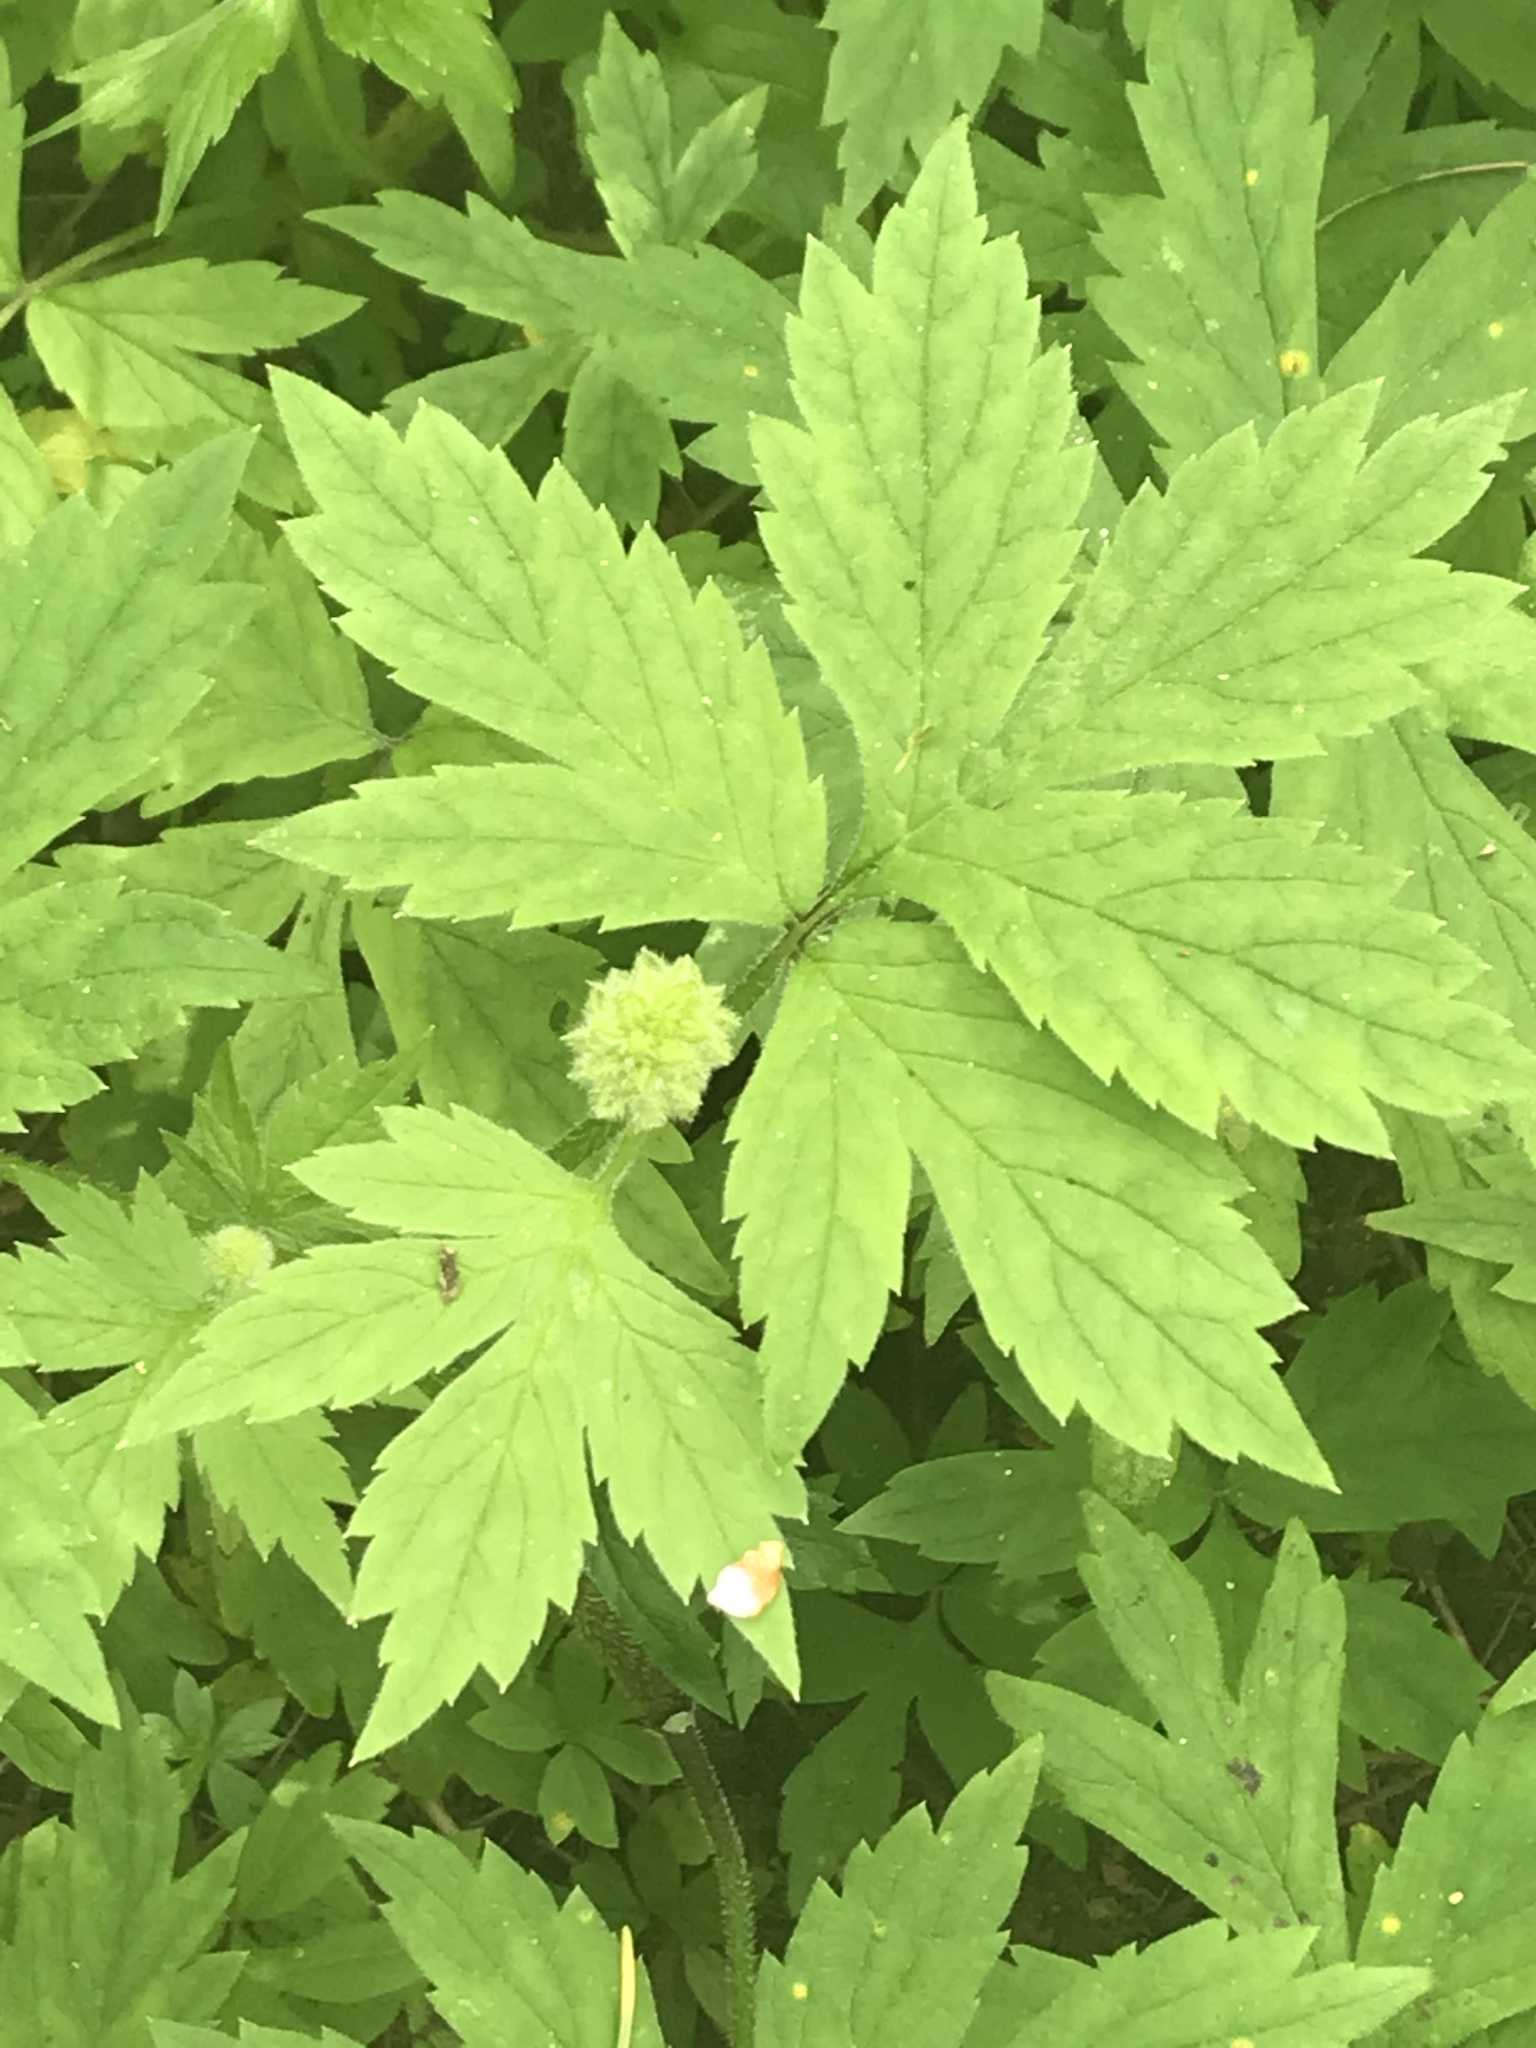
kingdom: Plantae
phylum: Tracheophyta
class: Magnoliopsida
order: Boraginales
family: Hydrophyllaceae
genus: Hydrophyllum
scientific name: Hydrophyllum tenuipes
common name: Pacific waterleaf
